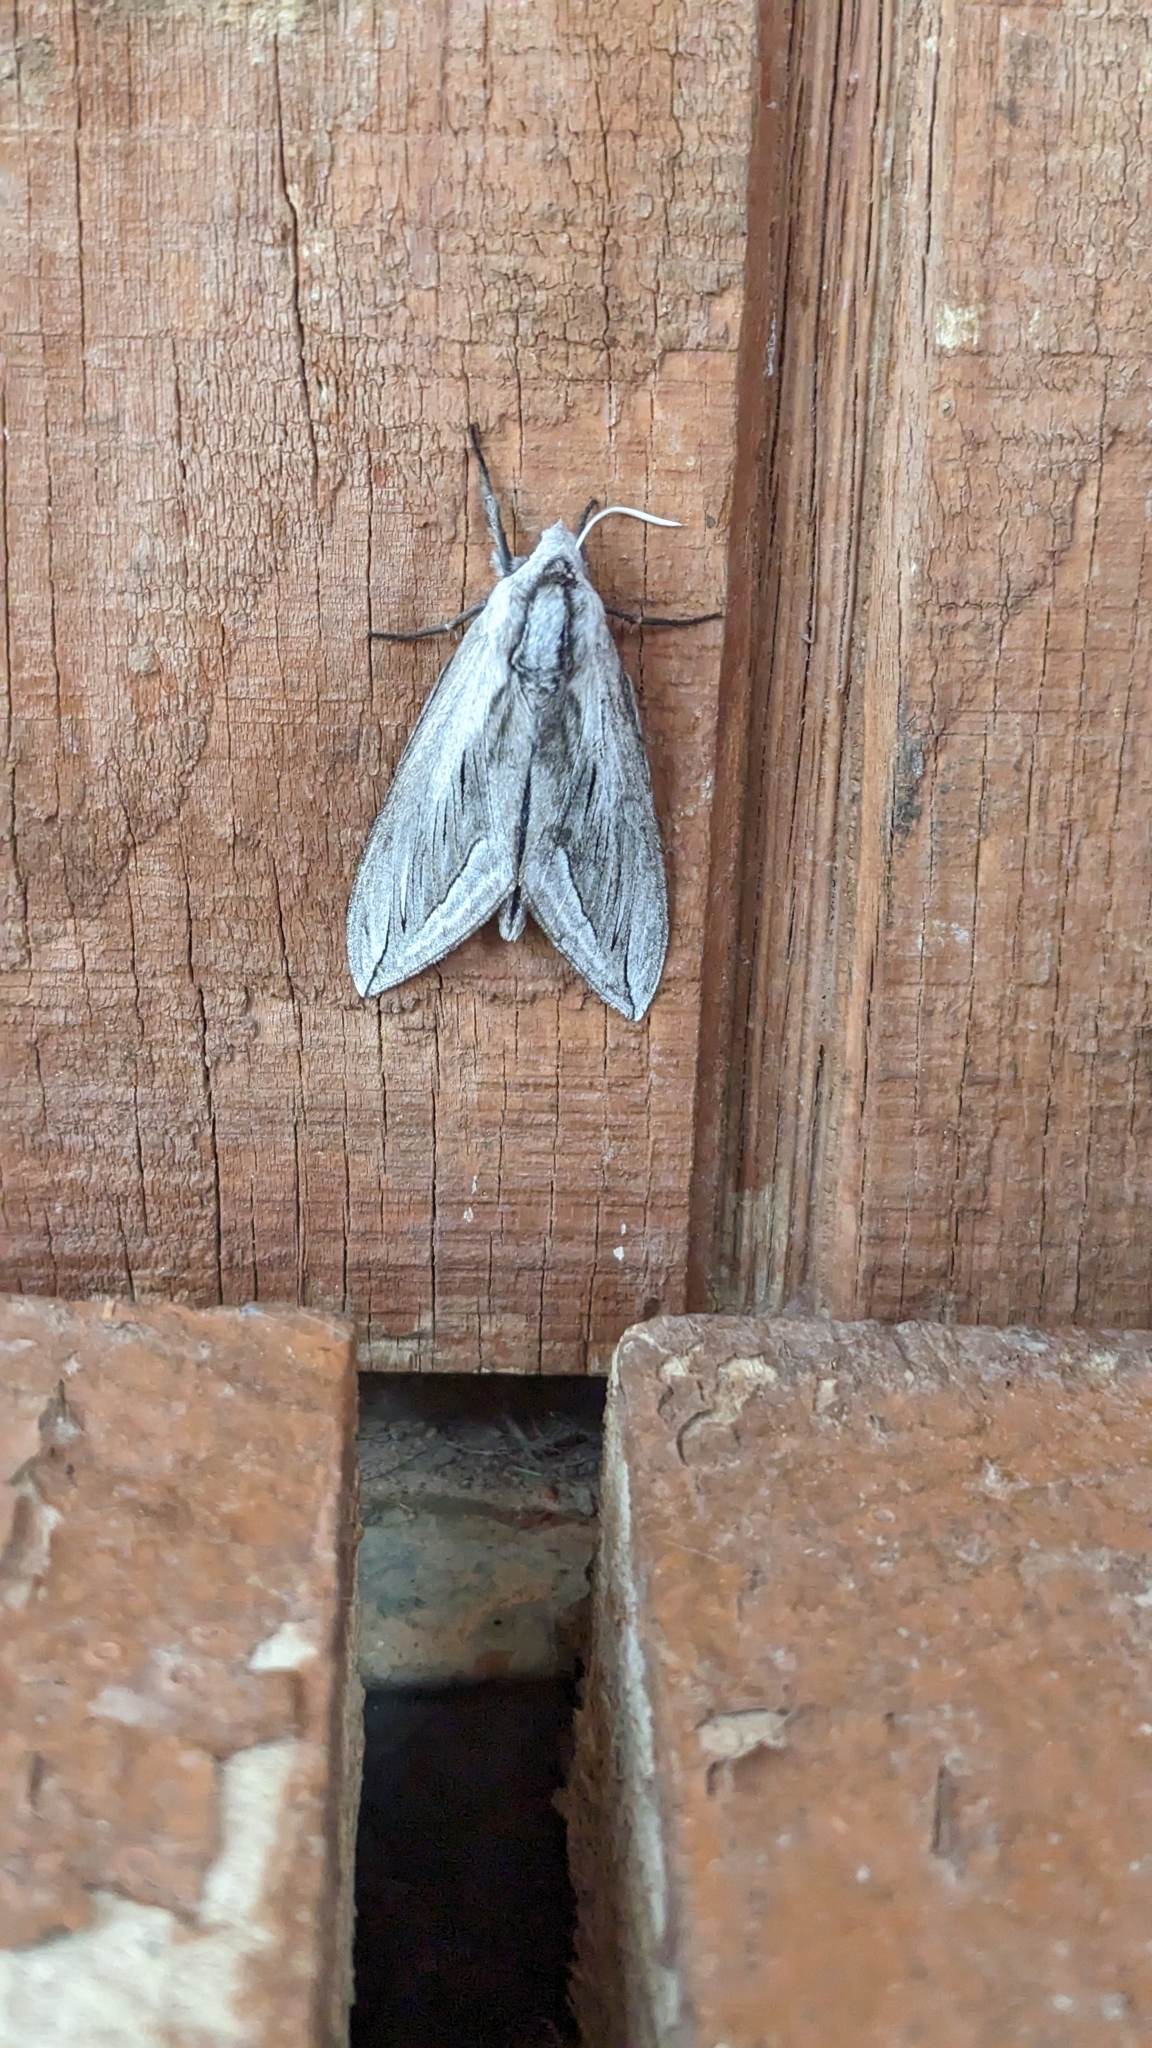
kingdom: Animalia
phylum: Arthropoda
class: Insecta
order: Lepidoptera
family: Sphingidae
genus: Sphinx
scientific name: Sphinx chersis
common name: Great ash sphinx
